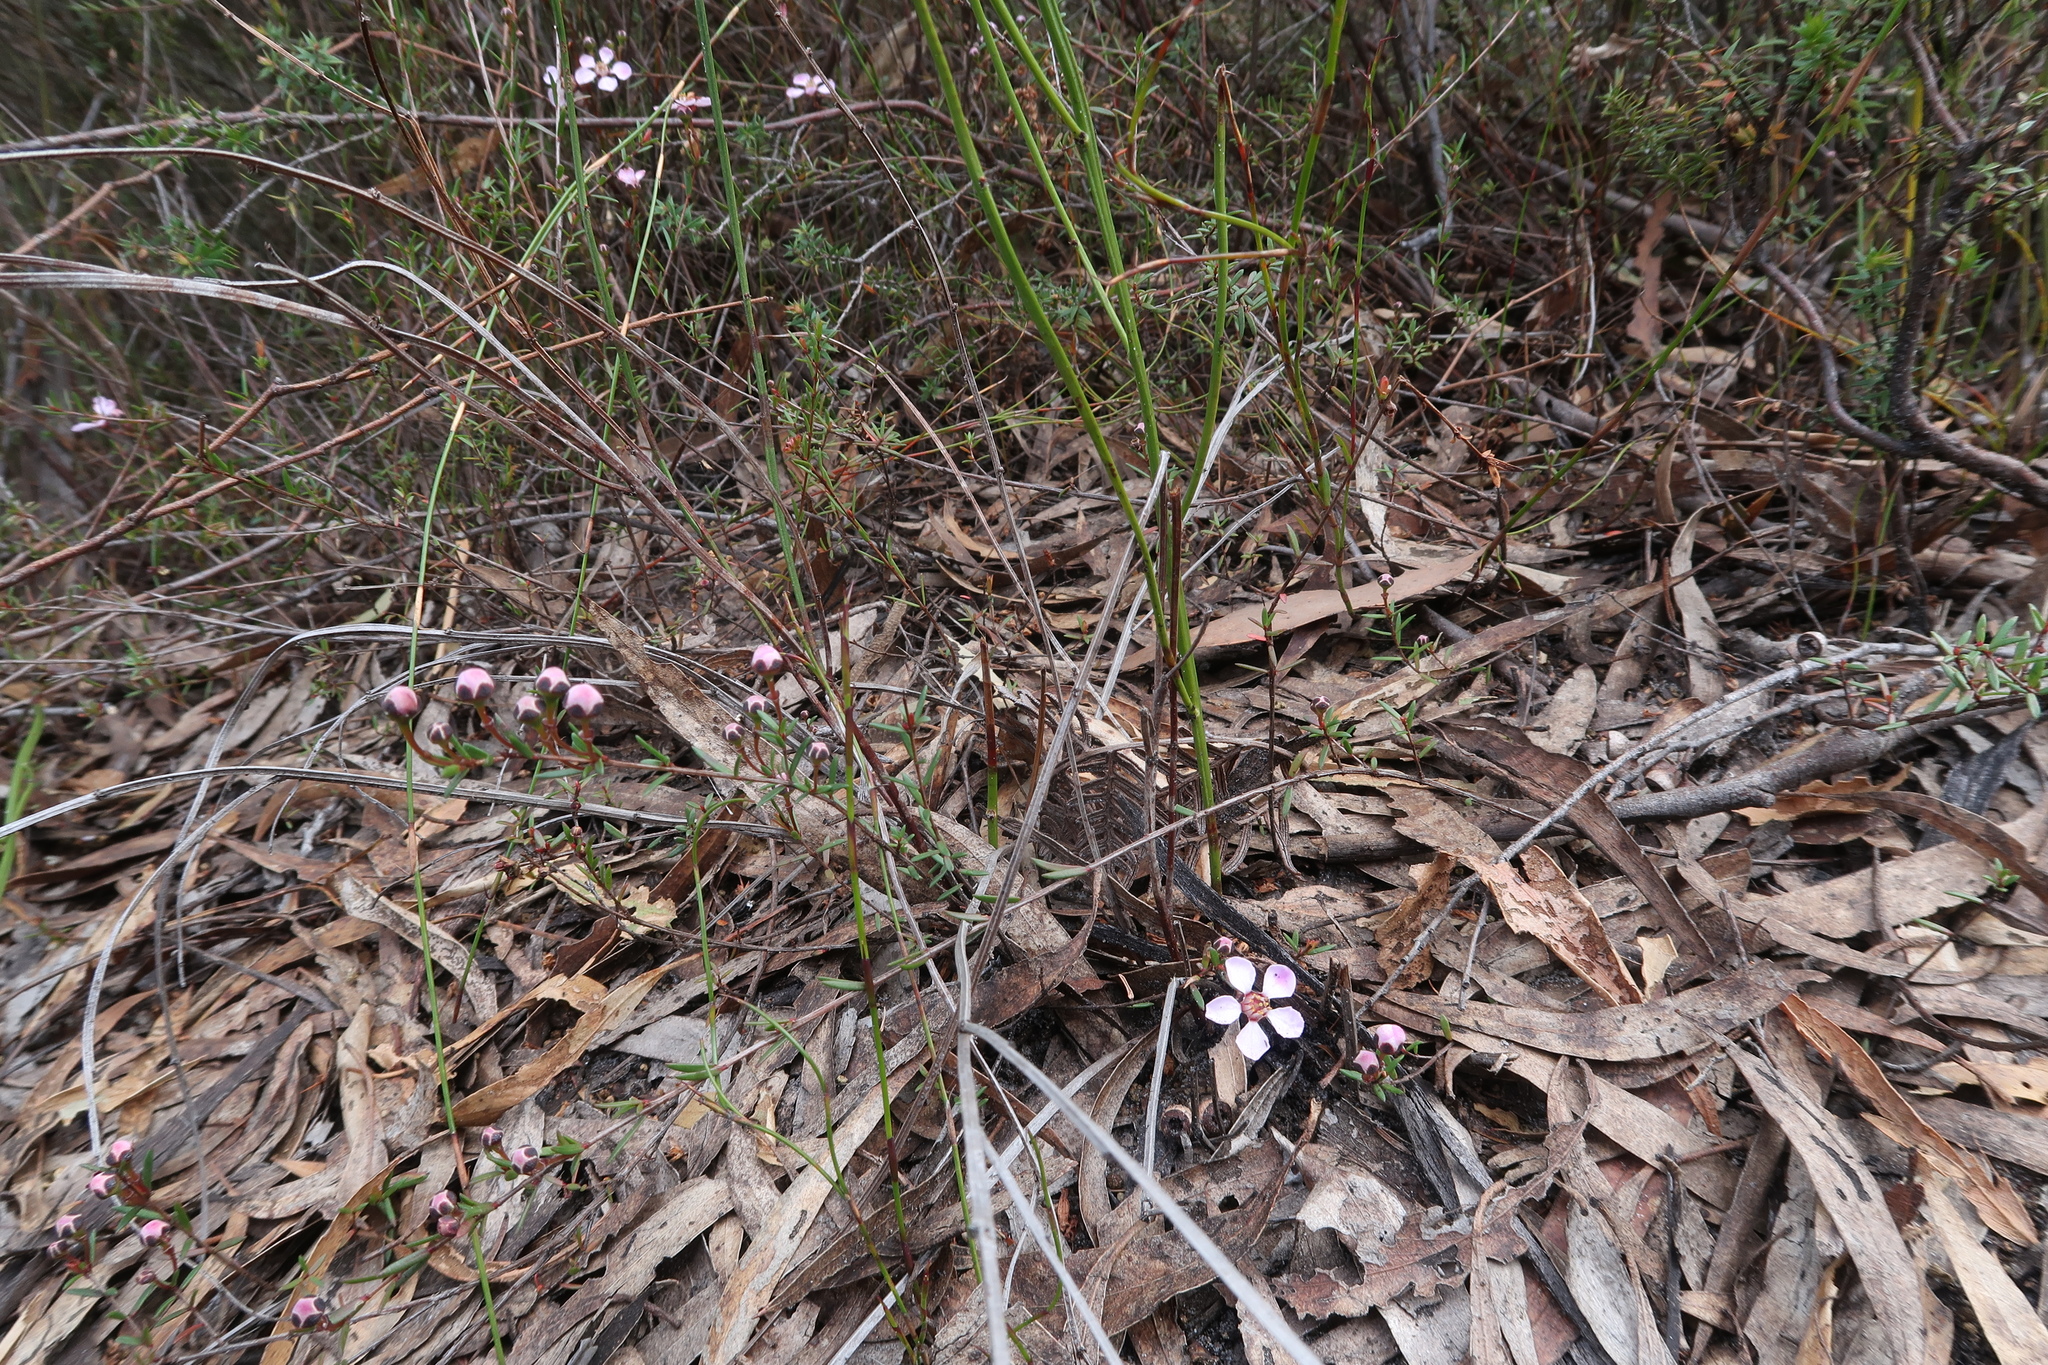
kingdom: Plantae
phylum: Tracheophyta
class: Magnoliopsida
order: Myrtales
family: Myrtaceae
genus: Euryomyrtus
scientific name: Euryomyrtus ramosissima
